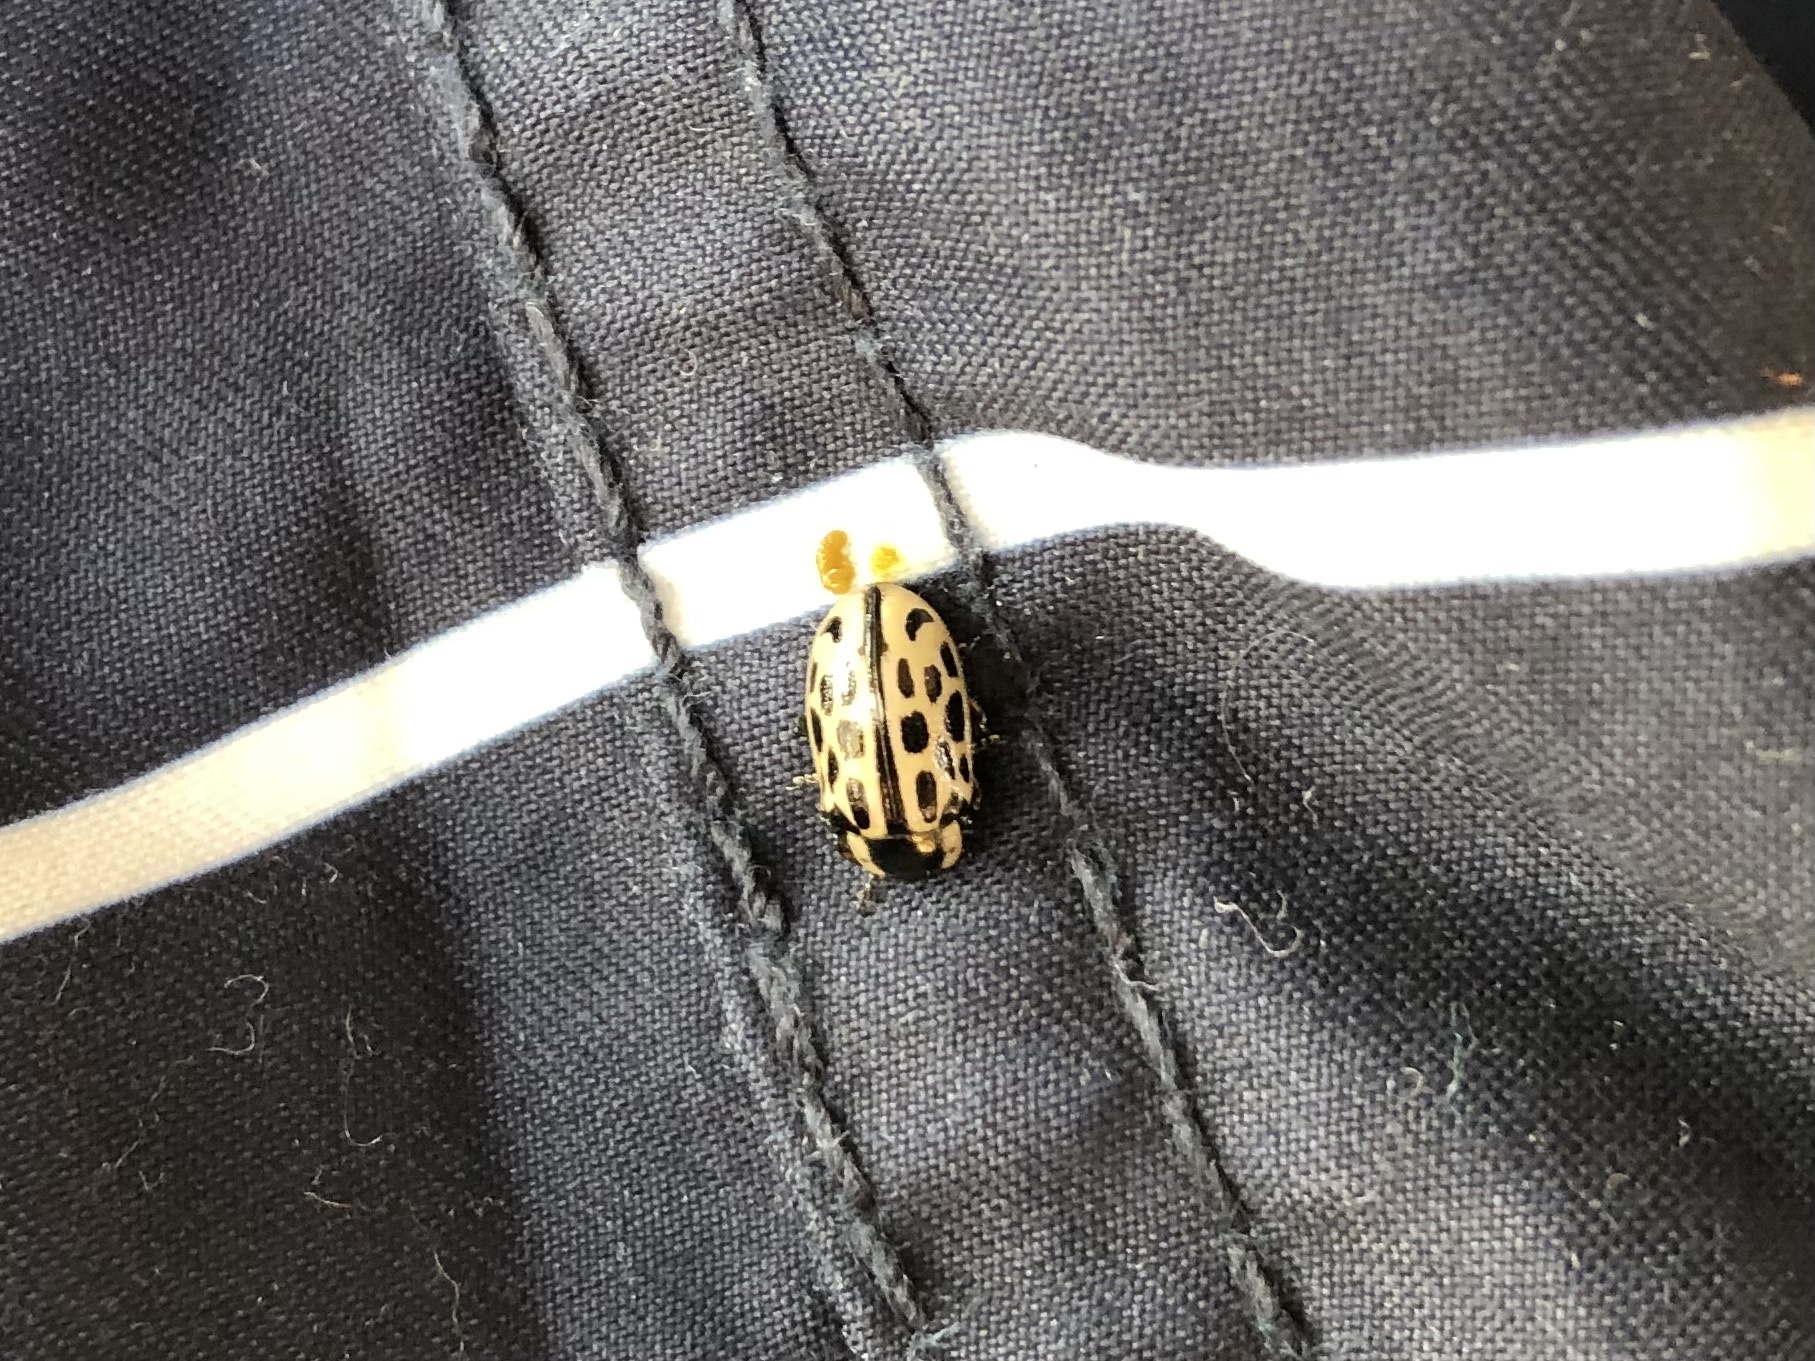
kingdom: Animalia
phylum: Arthropoda
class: Insecta
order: Coleoptera
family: Chrysomelidae
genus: Chrysomela
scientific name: Chrysomela vigintipunctata
